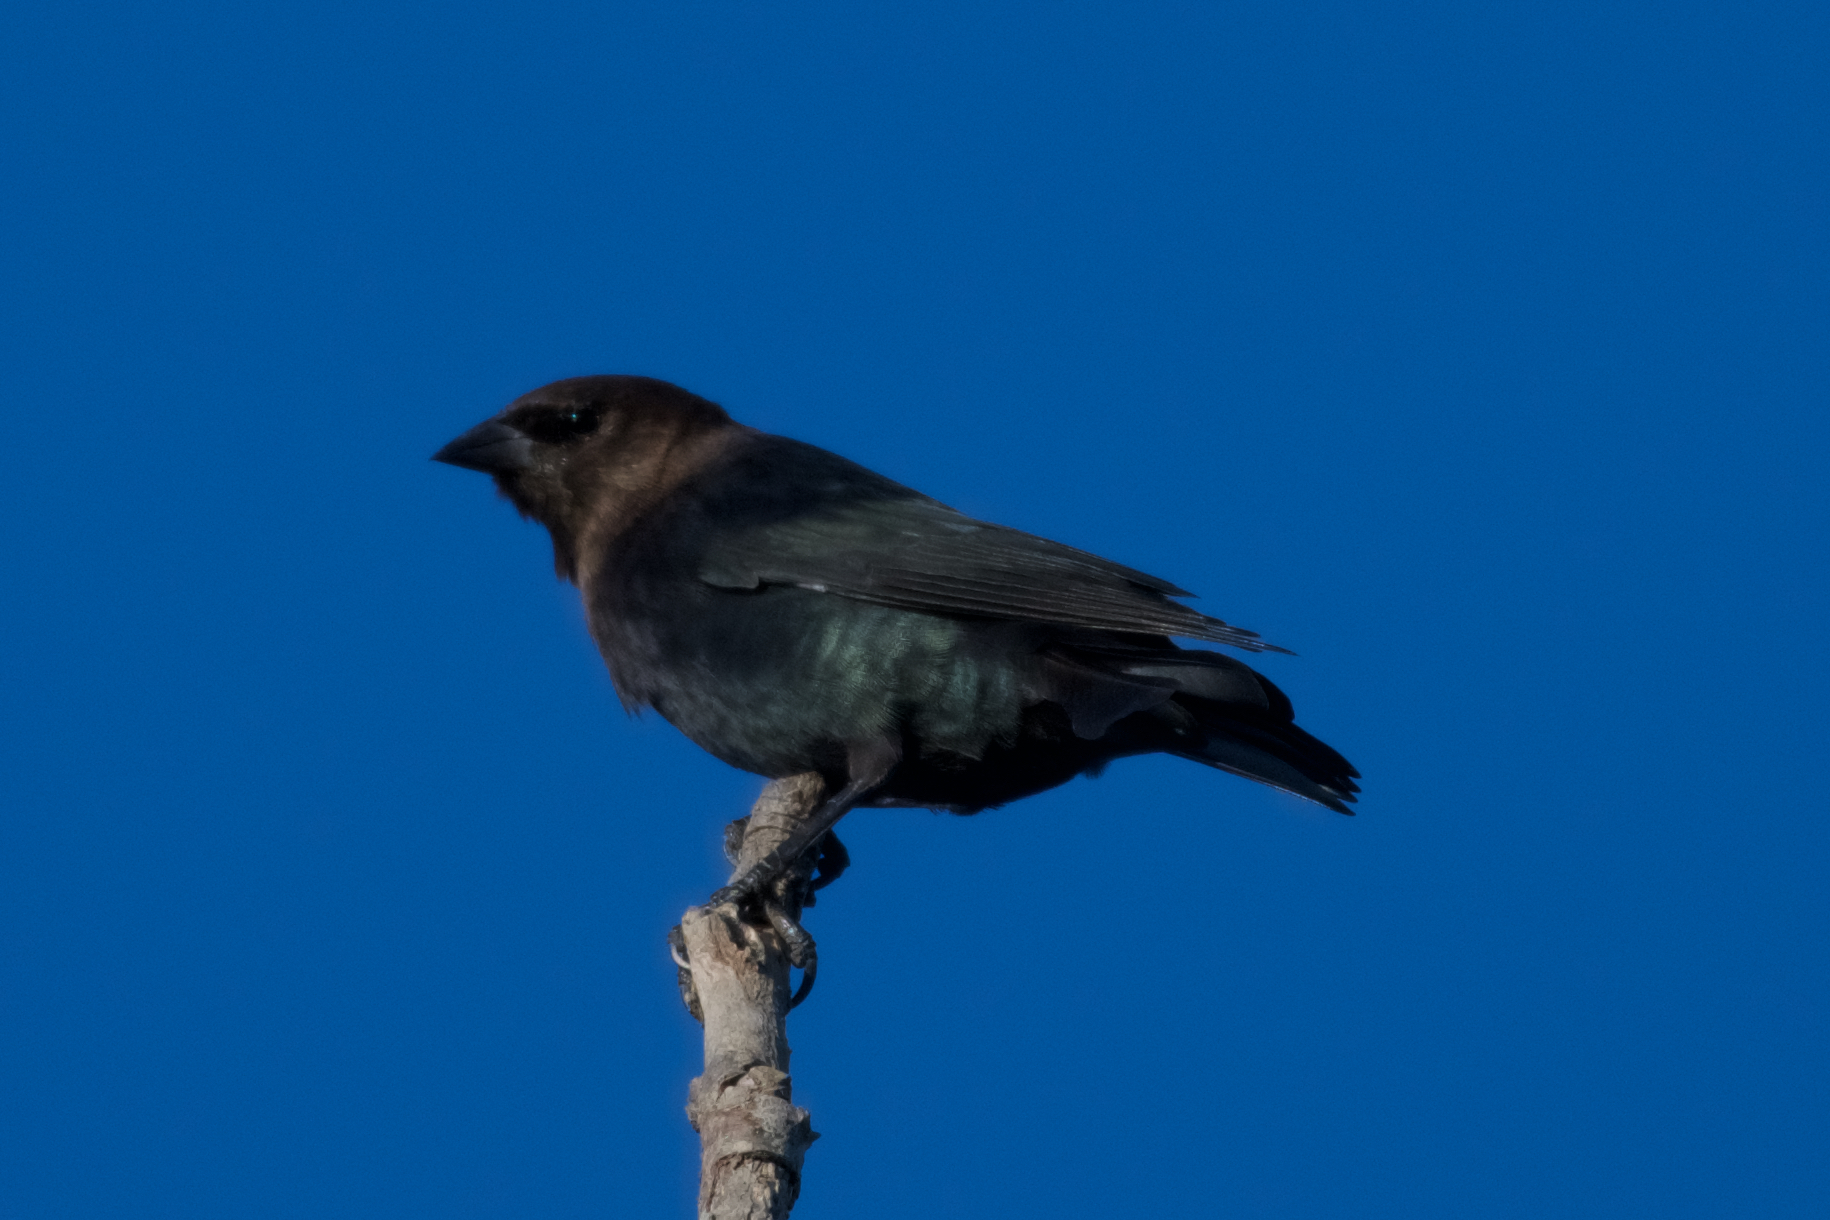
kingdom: Animalia
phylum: Chordata
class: Aves
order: Passeriformes
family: Icteridae
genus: Molothrus
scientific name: Molothrus ater
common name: Brown-headed cowbird
